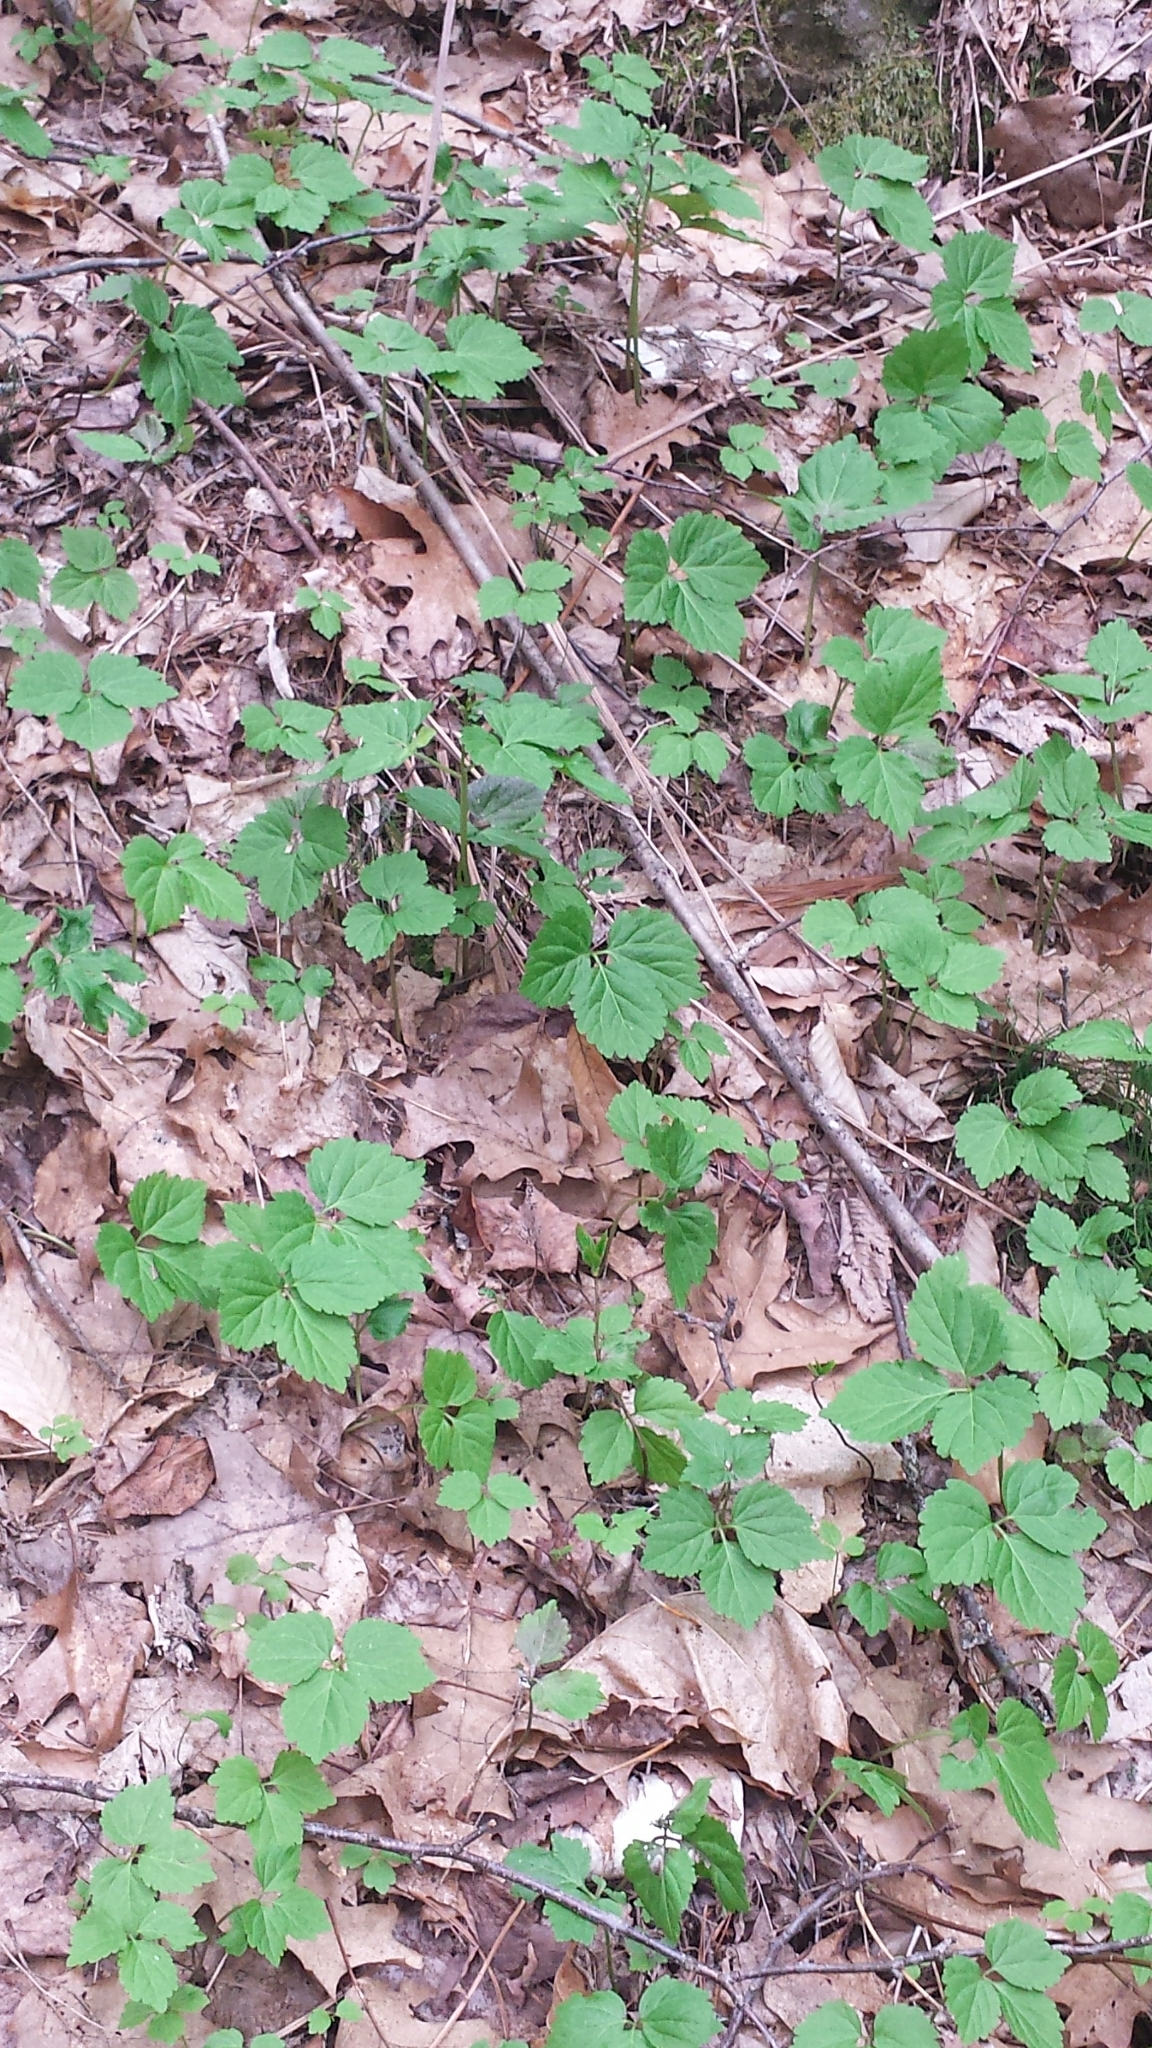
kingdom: Plantae
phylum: Tracheophyta
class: Magnoliopsida
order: Brassicales
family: Brassicaceae
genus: Cardamine
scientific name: Cardamine diphylla
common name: Broad-leaved toothwort
